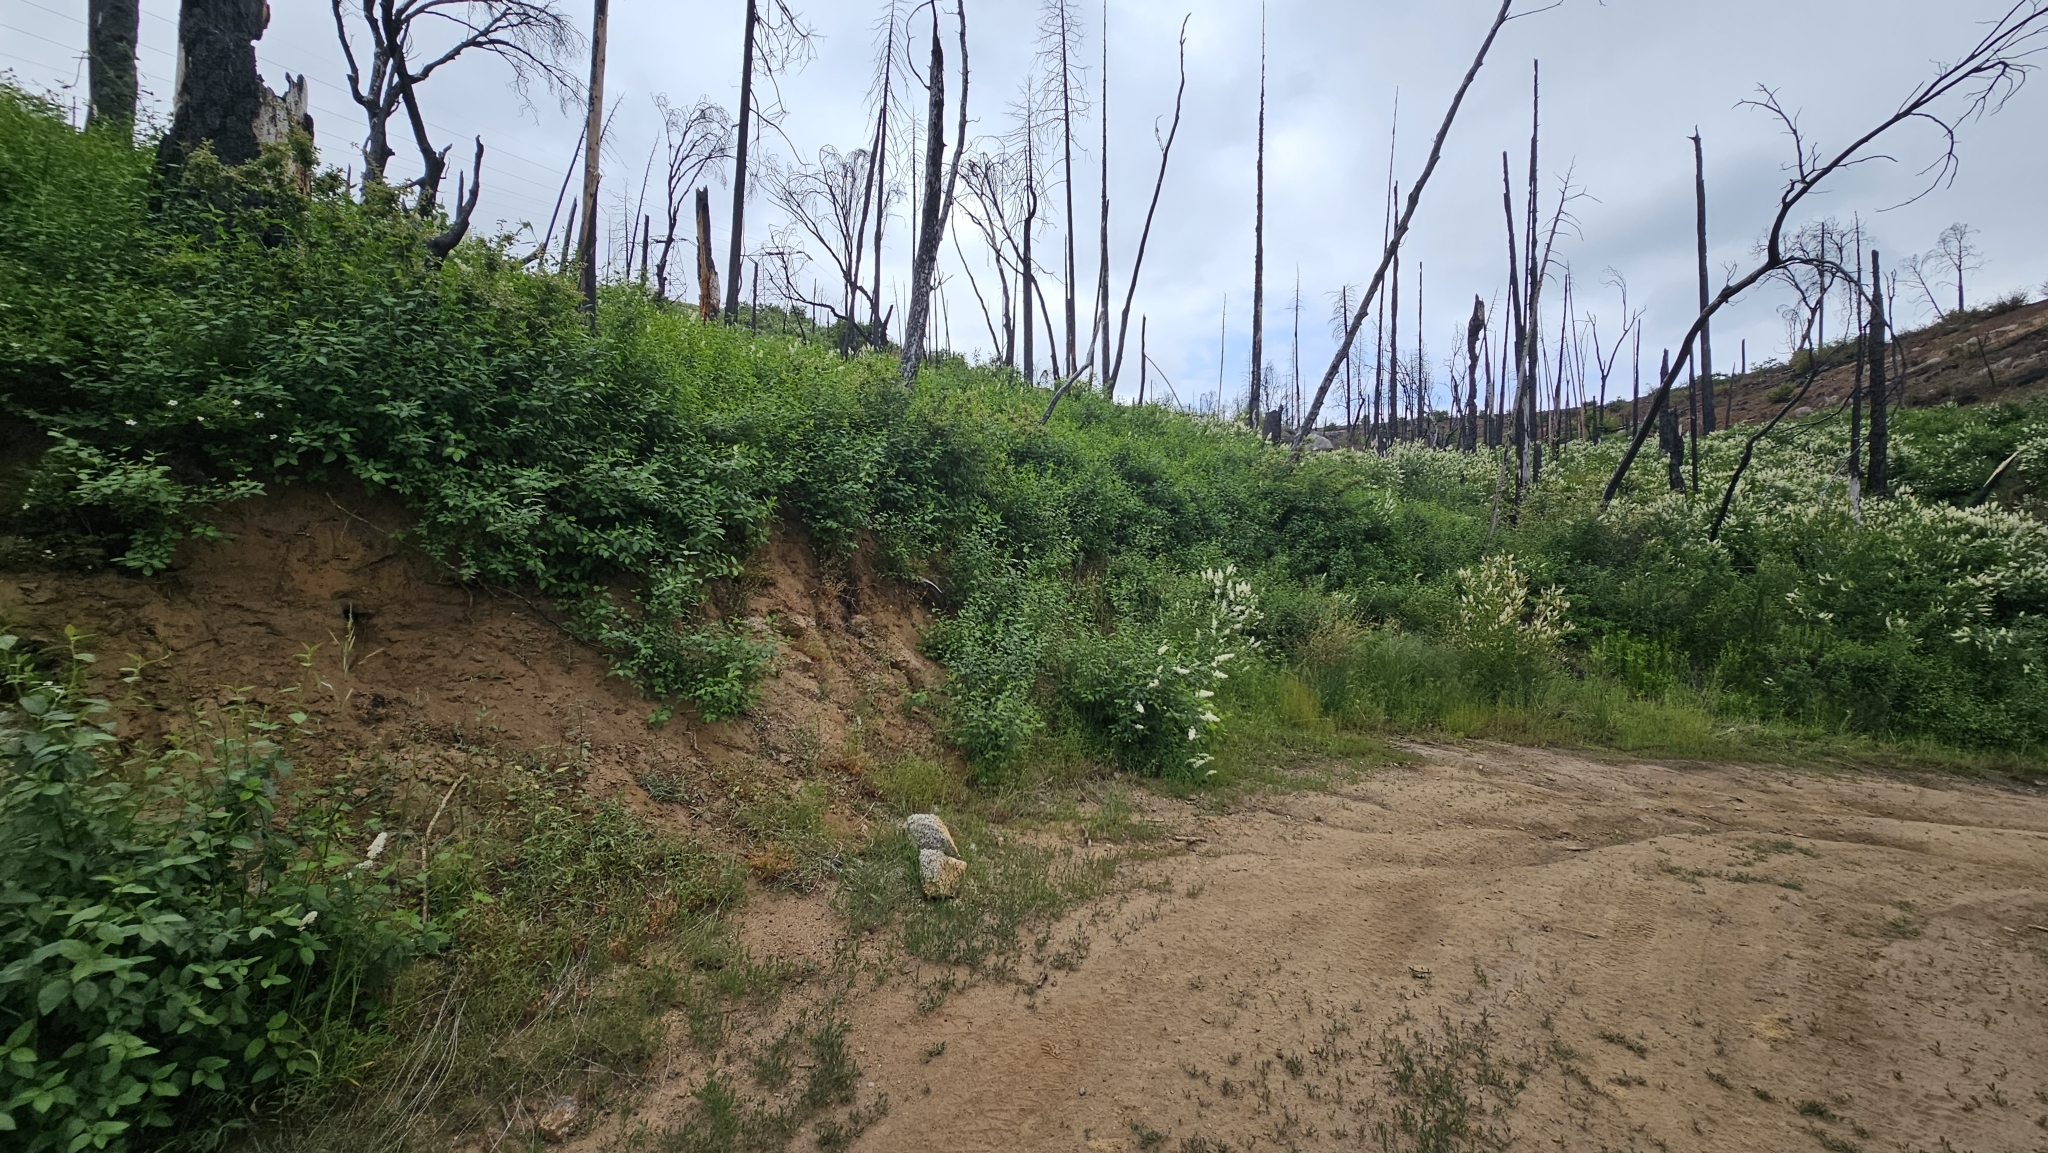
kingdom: Plantae
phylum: Tracheophyta
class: Magnoliopsida
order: Lamiales
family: Phrymaceae
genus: Erythranthe
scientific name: Erythranthe acutidens
